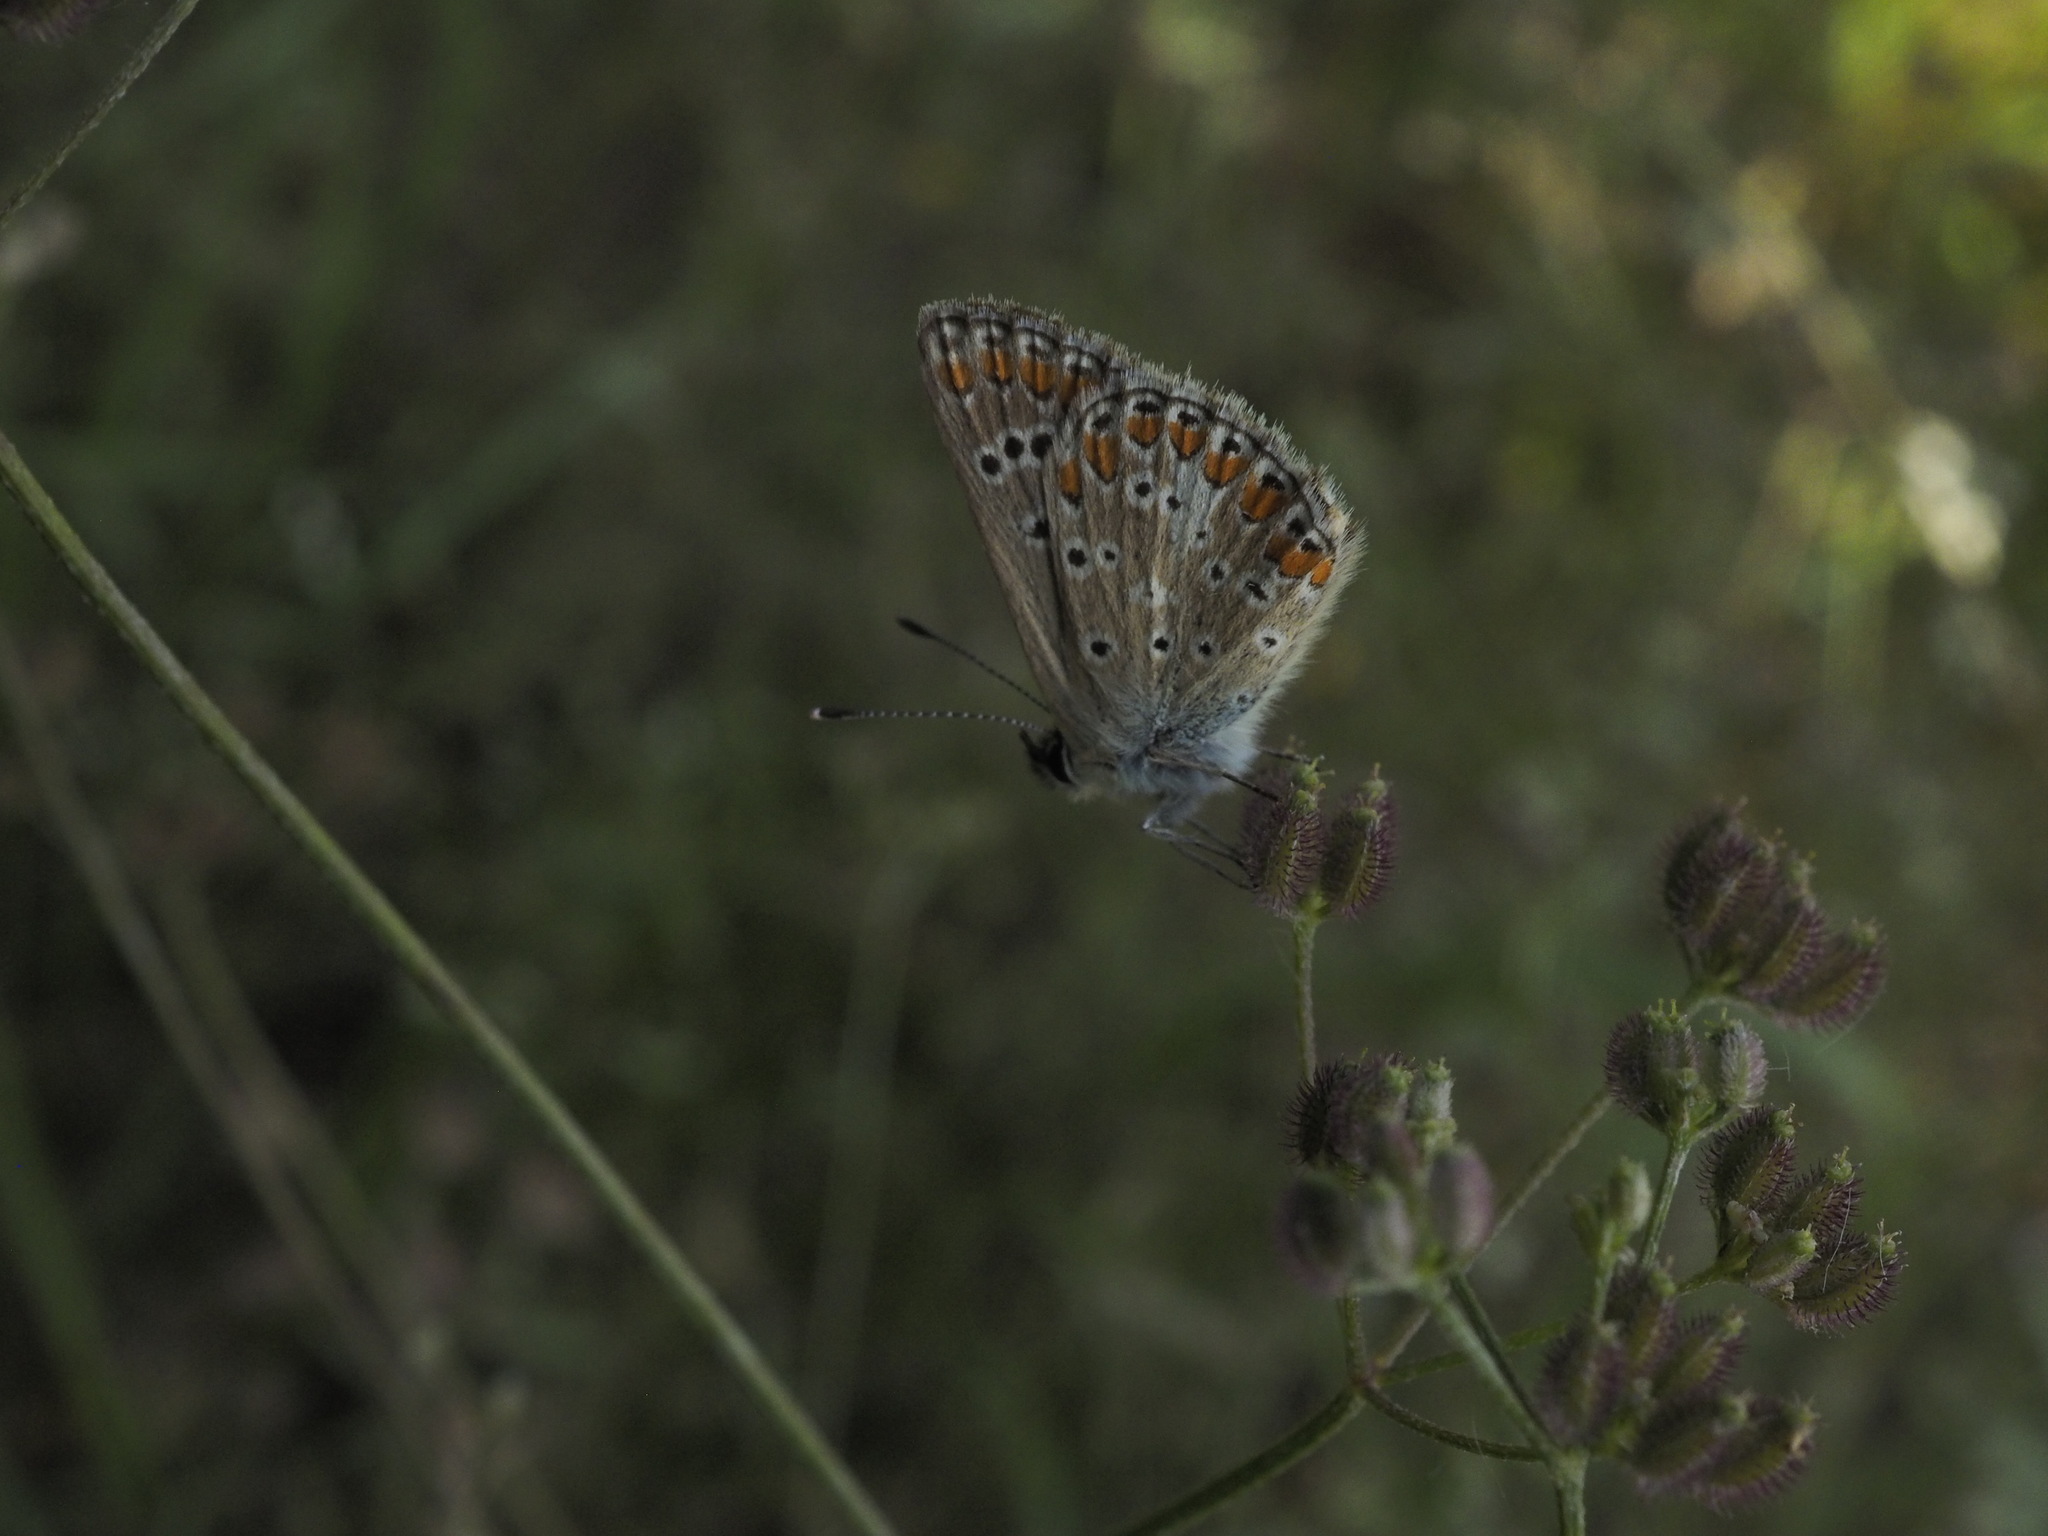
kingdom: Animalia
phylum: Arthropoda
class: Insecta
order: Lepidoptera
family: Lycaenidae
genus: Aricia
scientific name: Aricia agestis
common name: Brown argus
